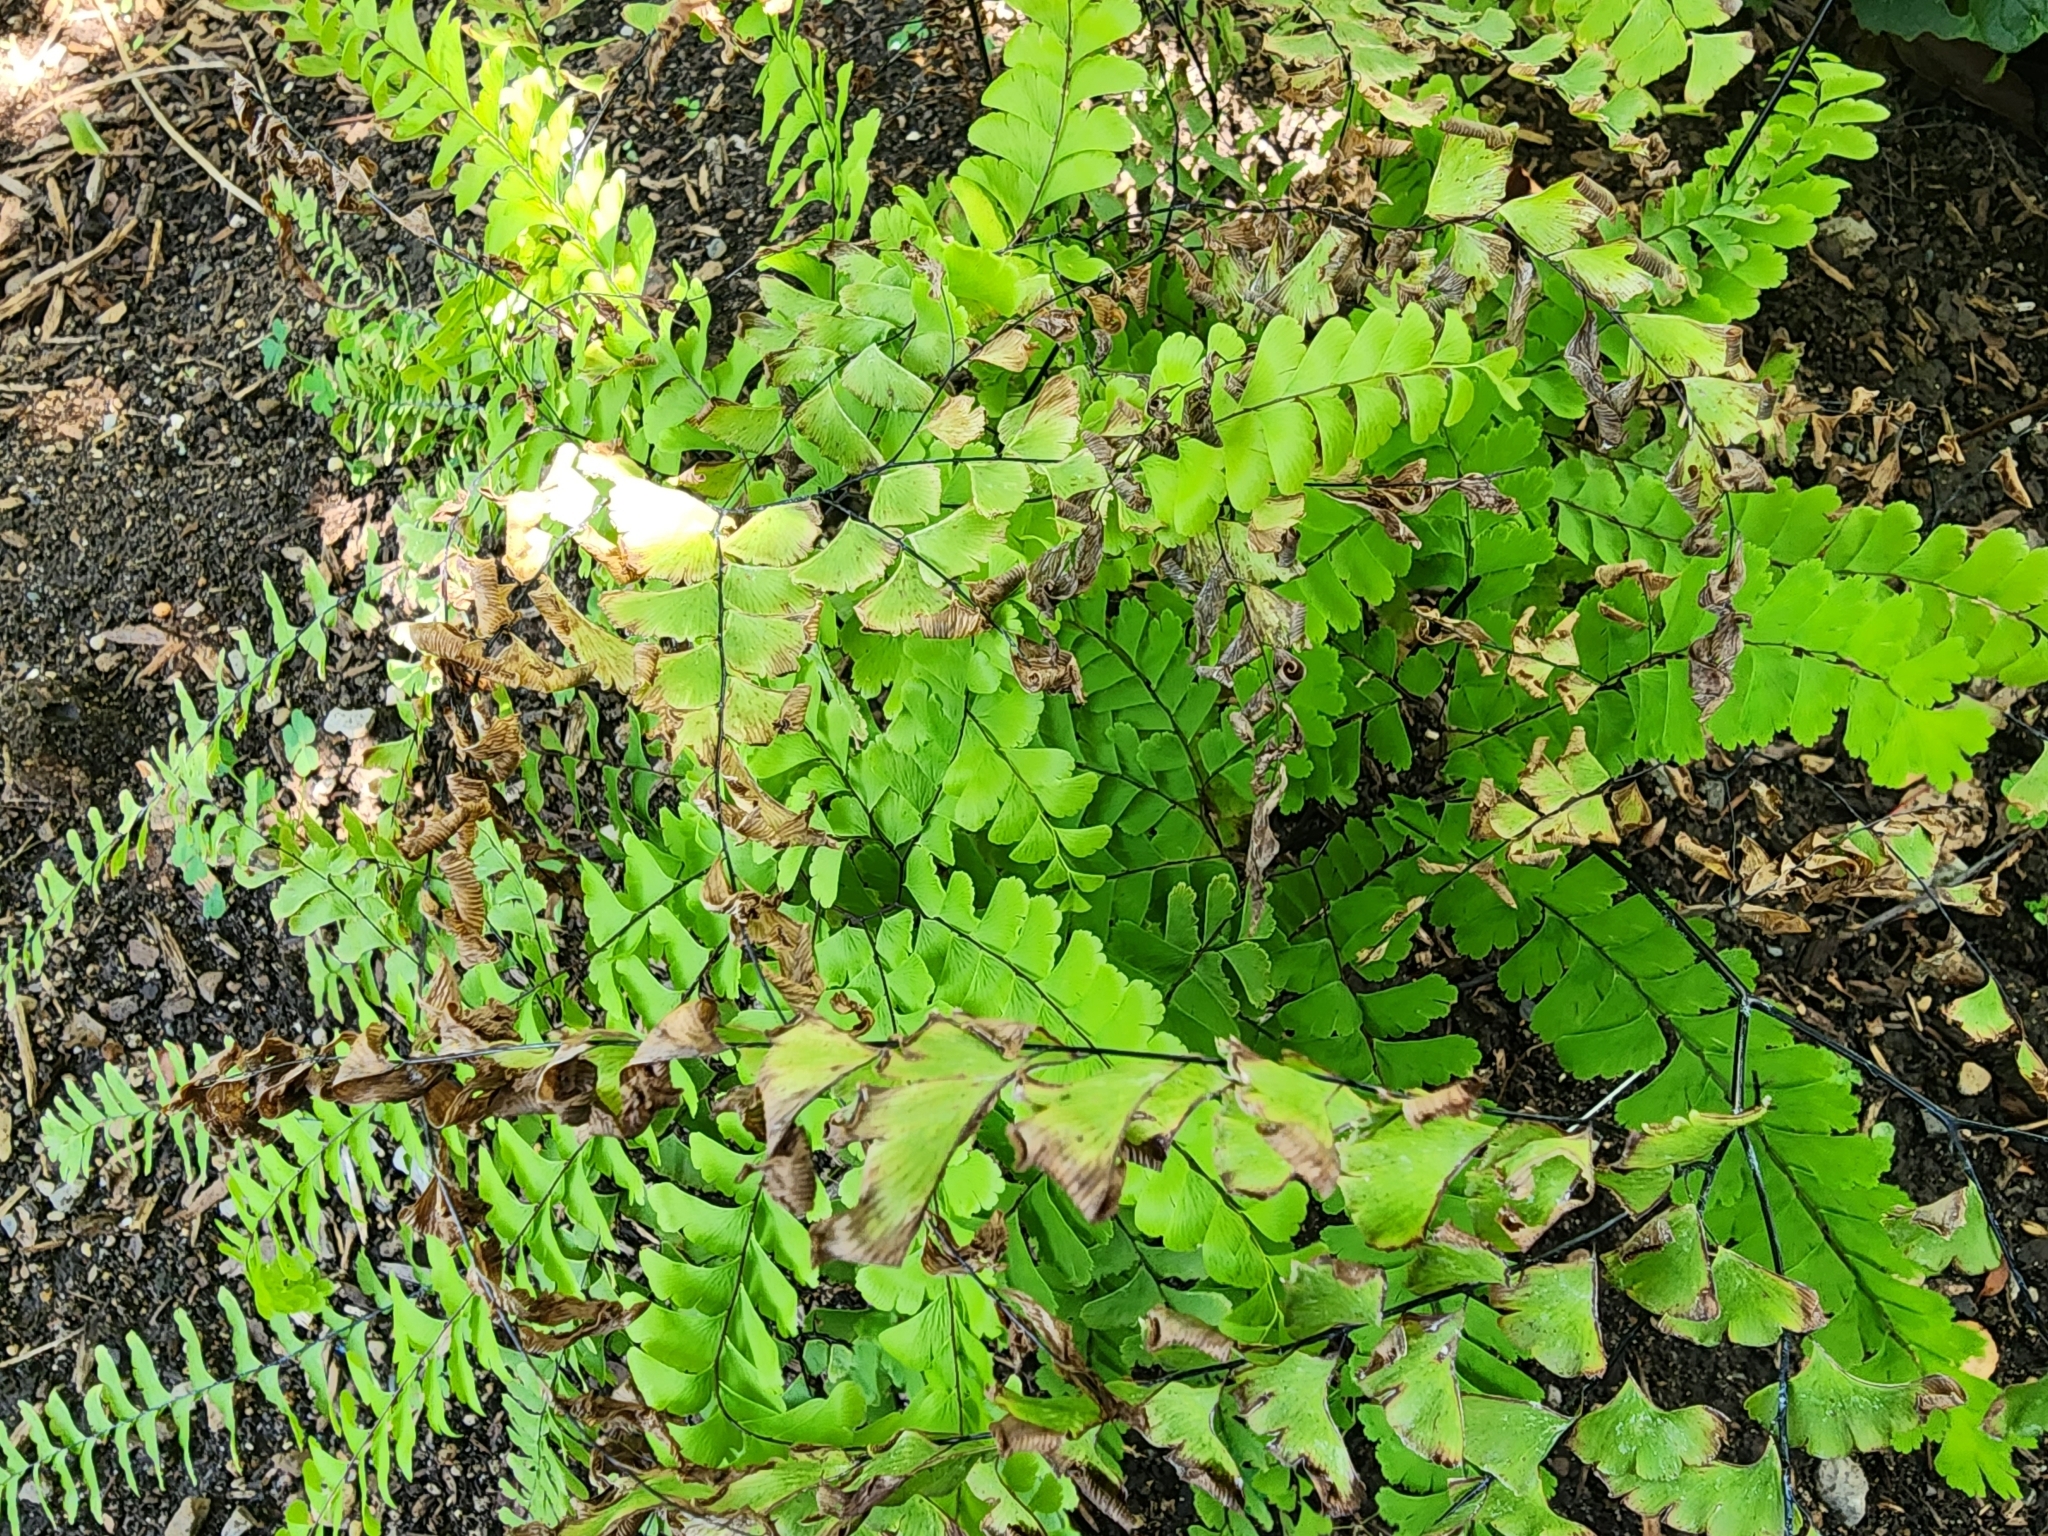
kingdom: Plantae
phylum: Tracheophyta
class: Polypodiopsida
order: Polypodiales
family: Pteridaceae
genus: Adiantum
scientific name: Adiantum pedatum
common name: Five-finger fern
